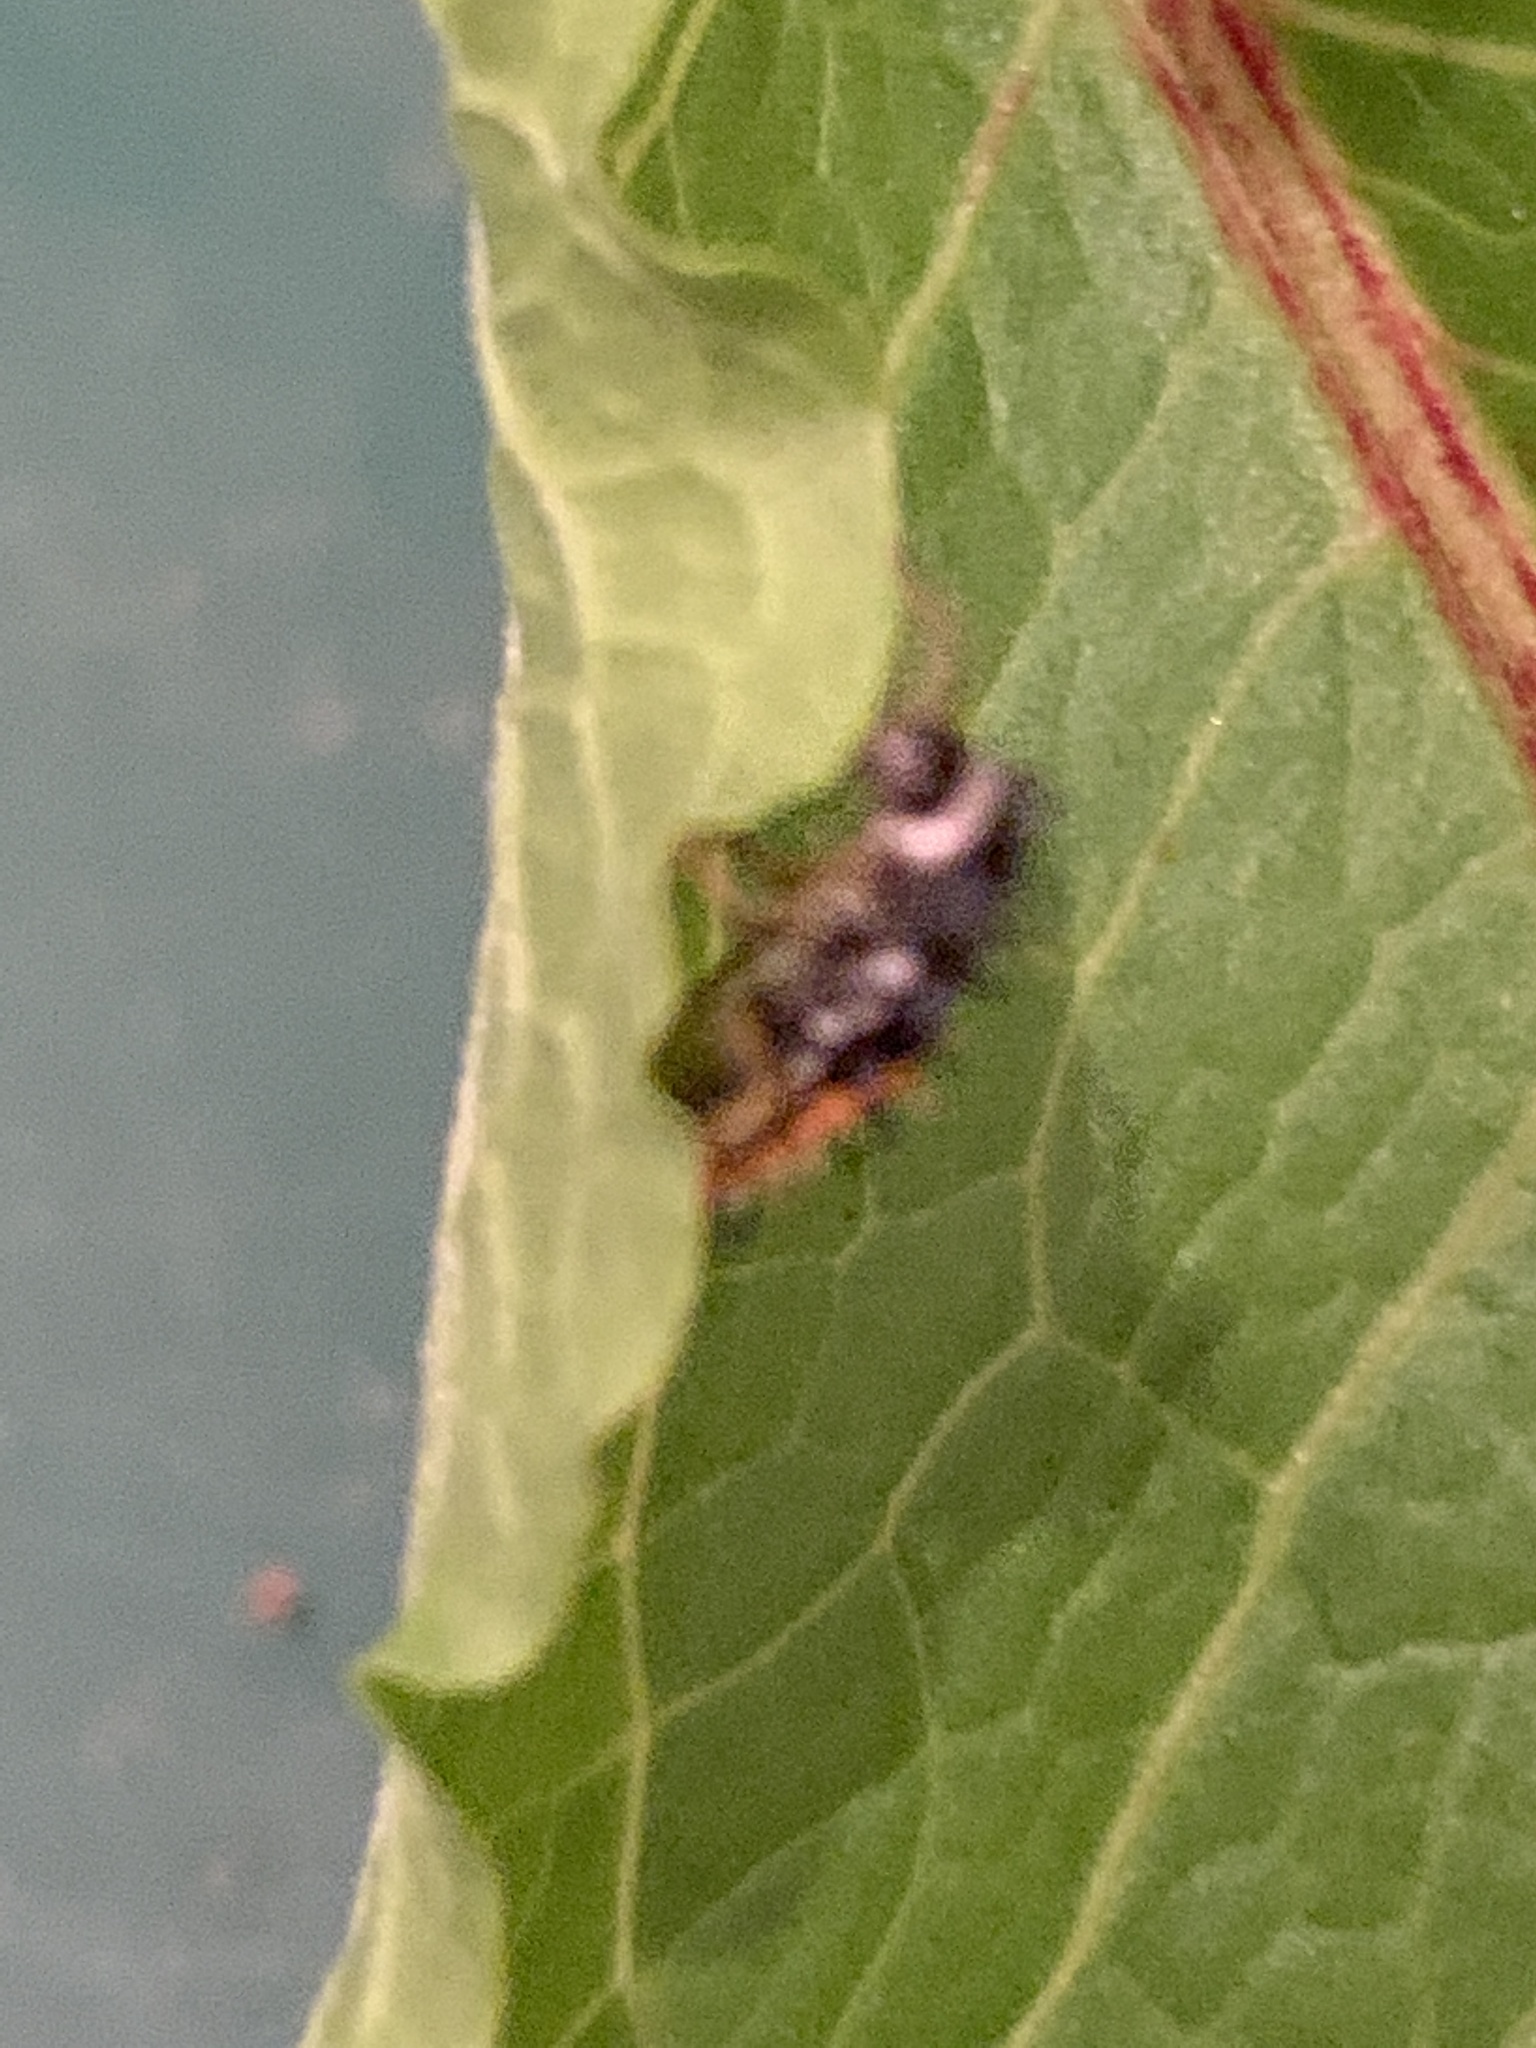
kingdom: Animalia
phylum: Arthropoda
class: Insecta
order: Coleoptera
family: Coccinellidae
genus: Harmonia
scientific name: Harmonia axyridis
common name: Harlequin ladybird
